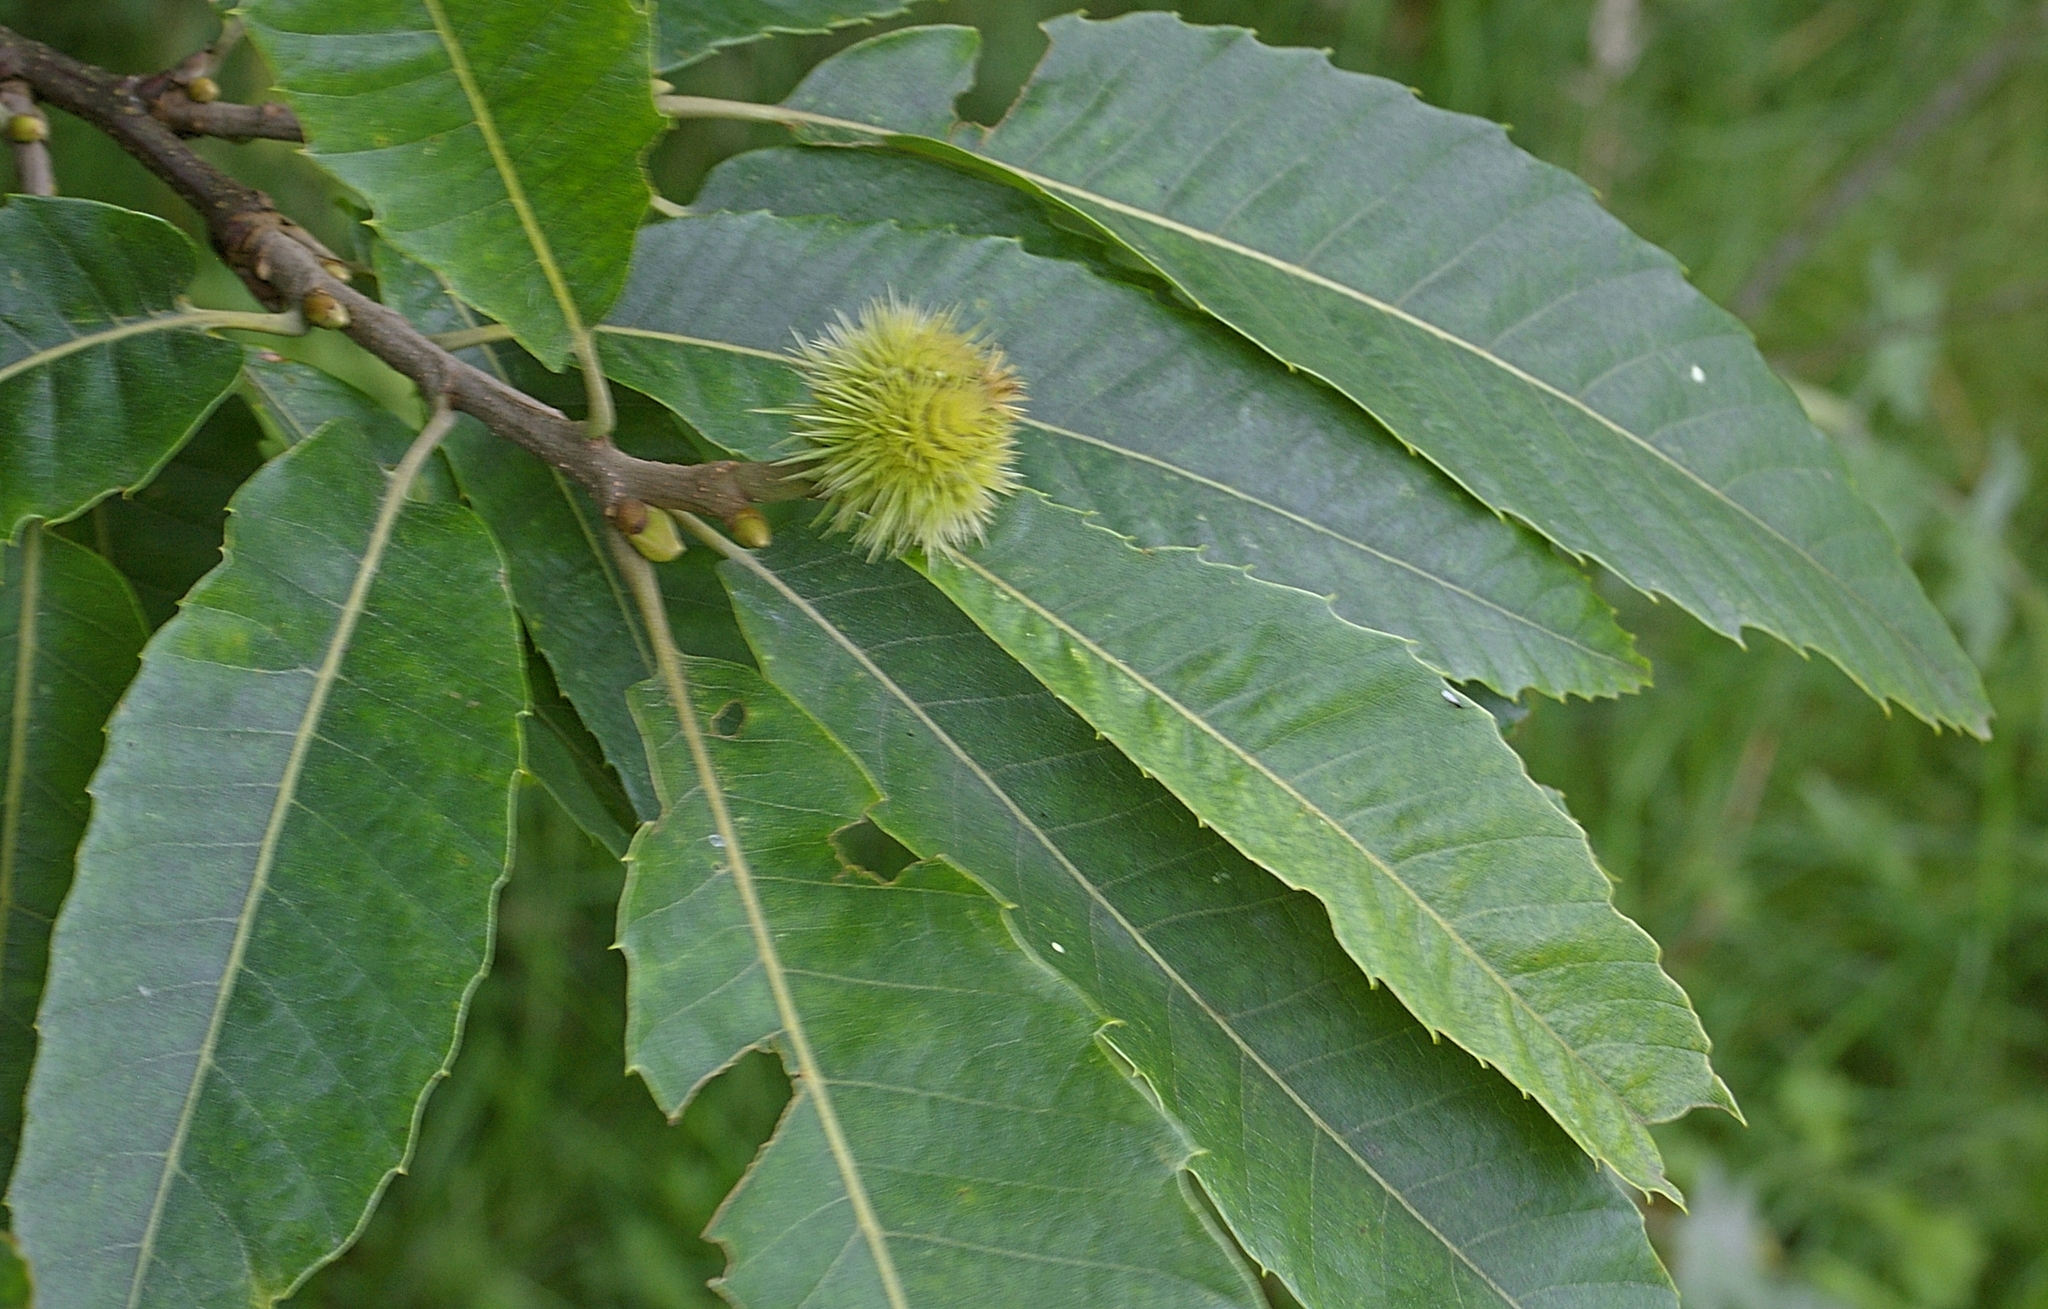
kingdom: Plantae
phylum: Tracheophyta
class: Magnoliopsida
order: Fagales
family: Fagaceae
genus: Castanea
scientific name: Castanea sativa
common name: Sweet chestnut
